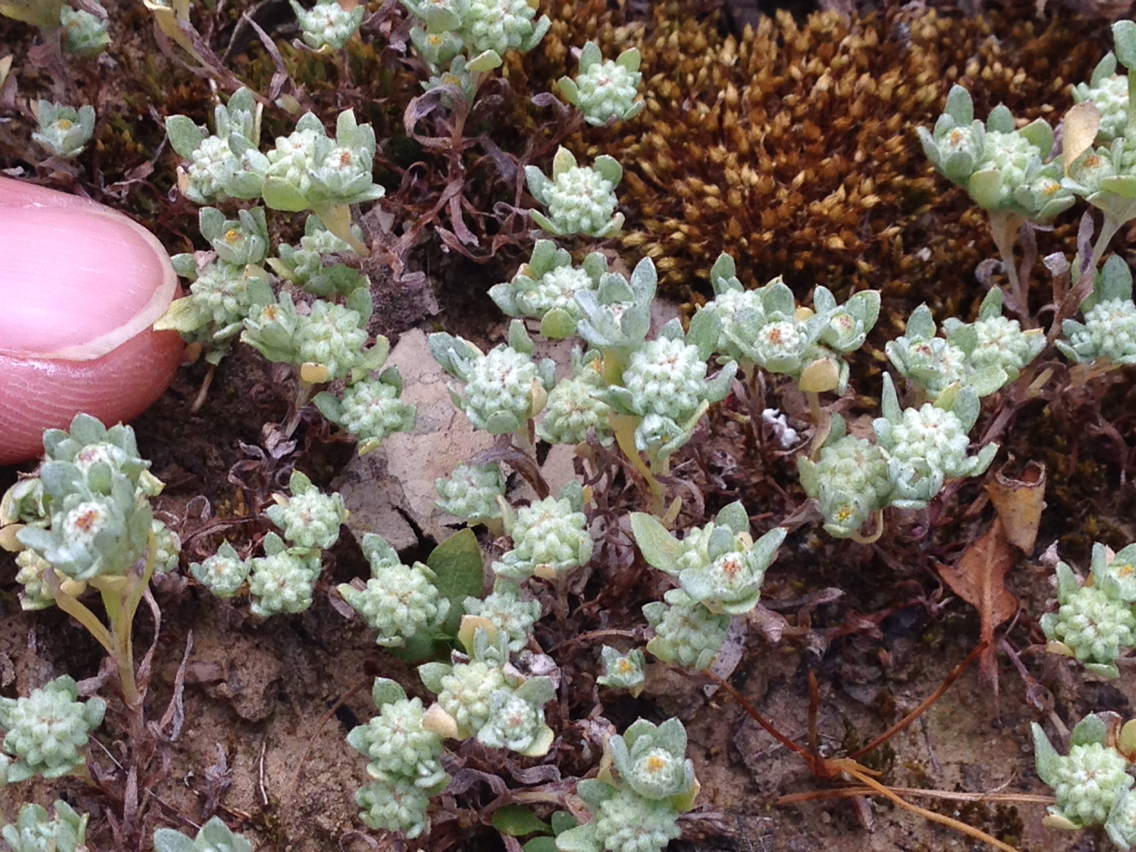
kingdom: Plantae
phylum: Tracheophyta
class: Magnoliopsida
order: Asterales
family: Asteraceae
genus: Psilocarphus
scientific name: Psilocarphus tenellus
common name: Slender woolly-marbles
